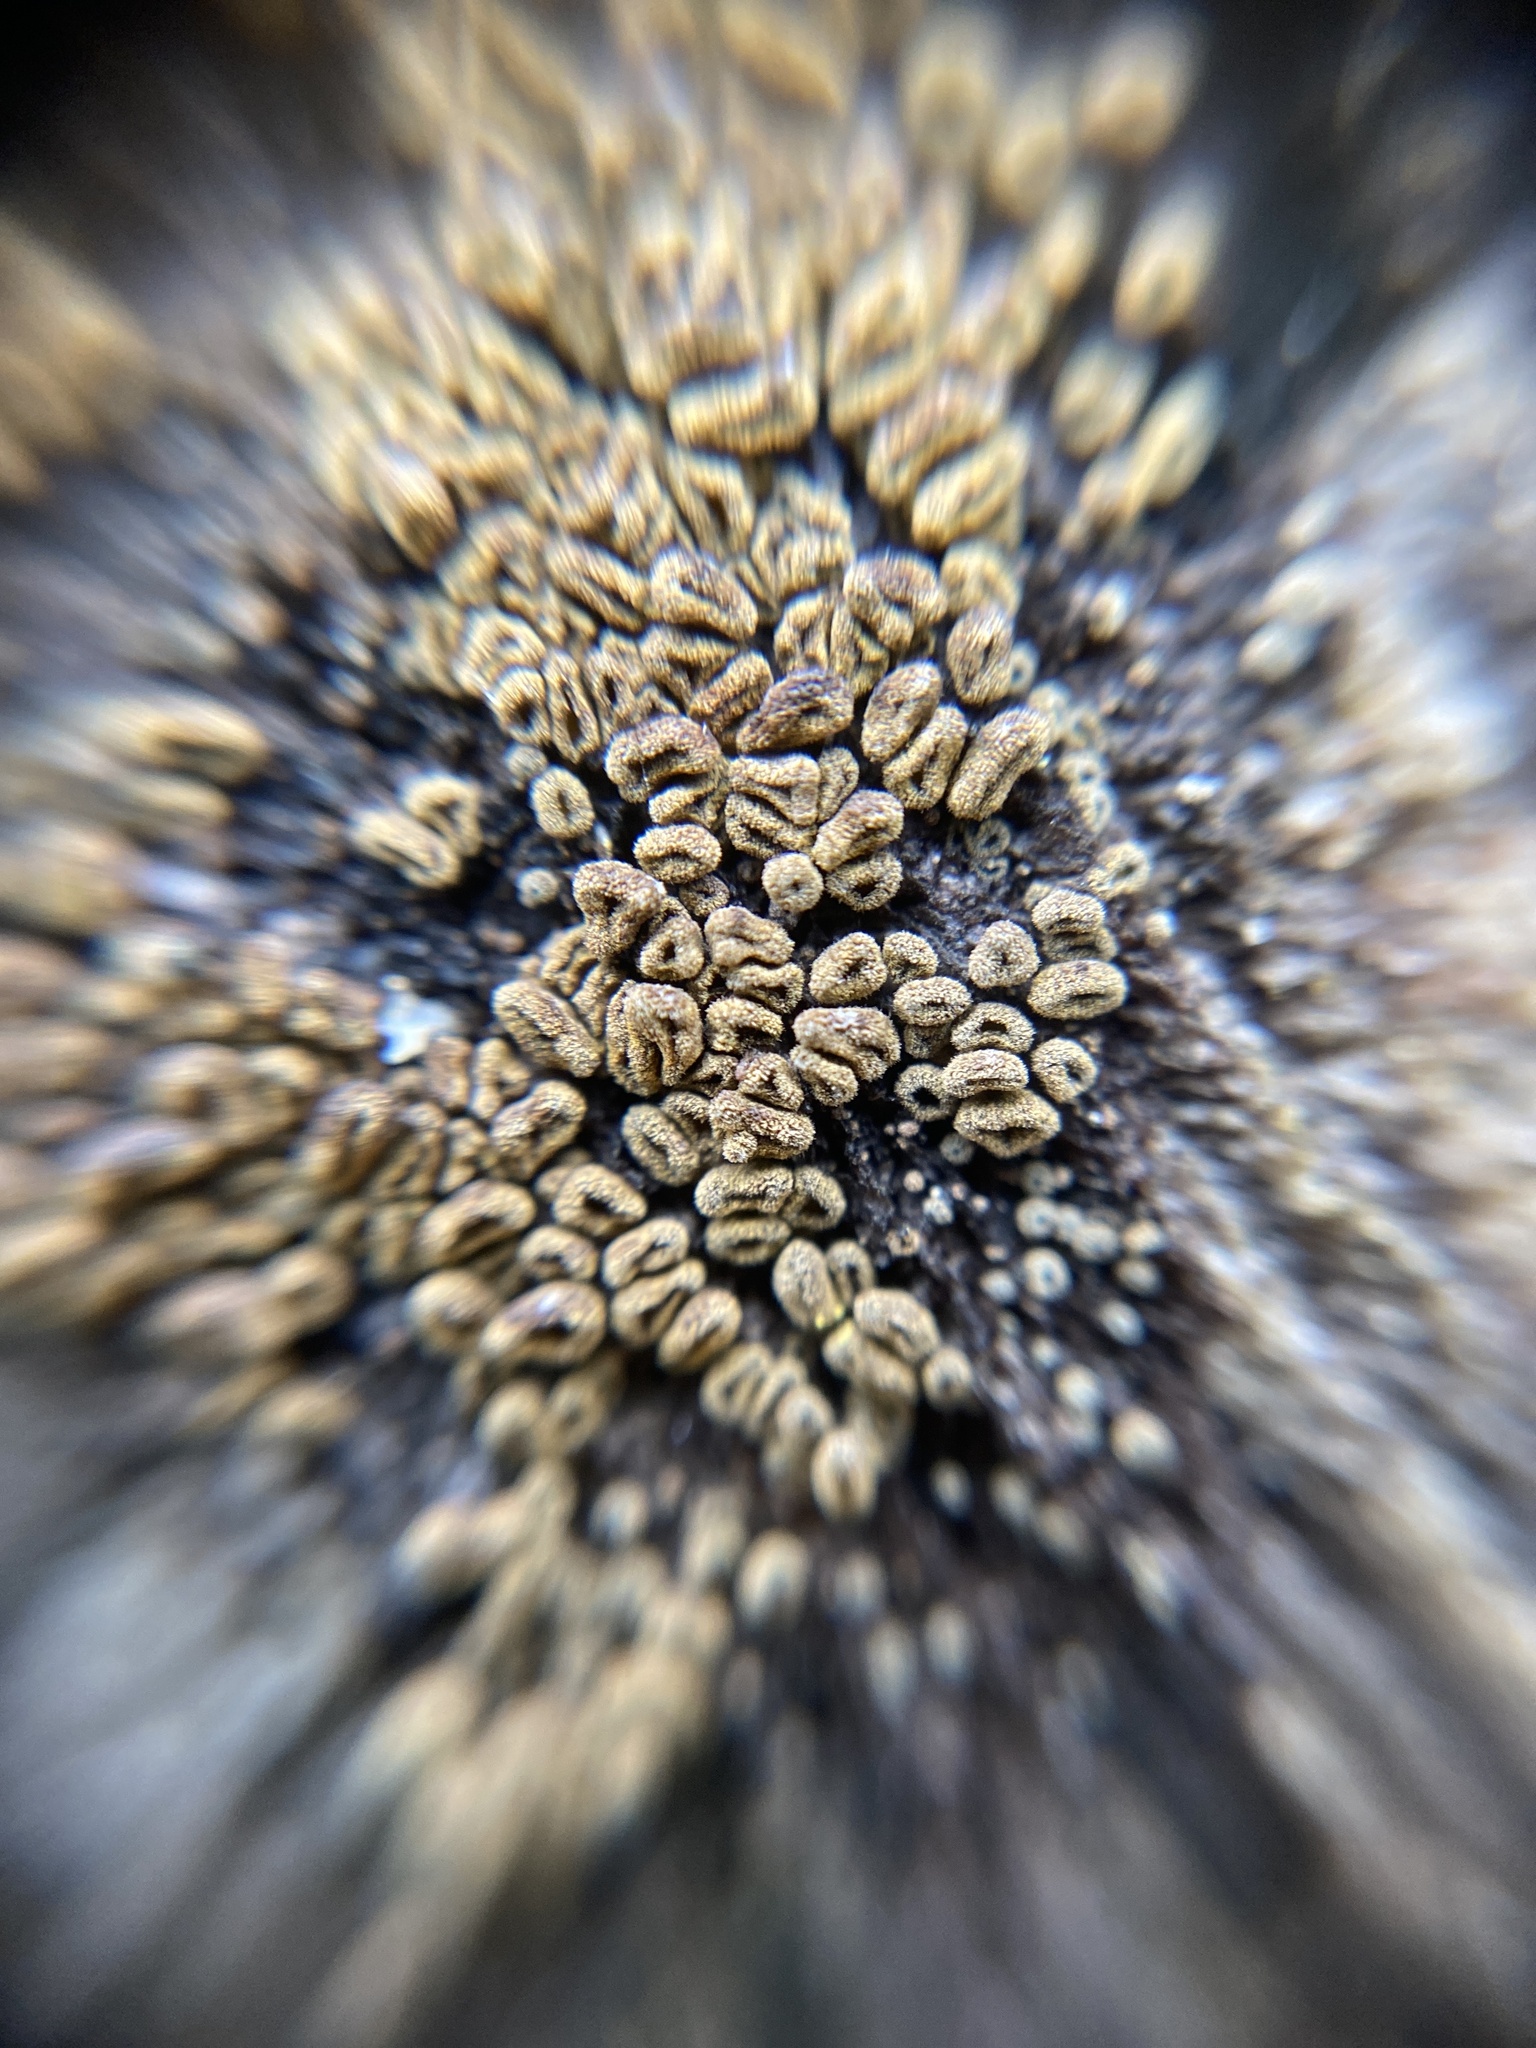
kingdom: Fungi
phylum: Ascomycota
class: Leotiomycetes
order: Helotiales
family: Lachnaceae
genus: Neodasyscypha
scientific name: Neodasyscypha cerina
